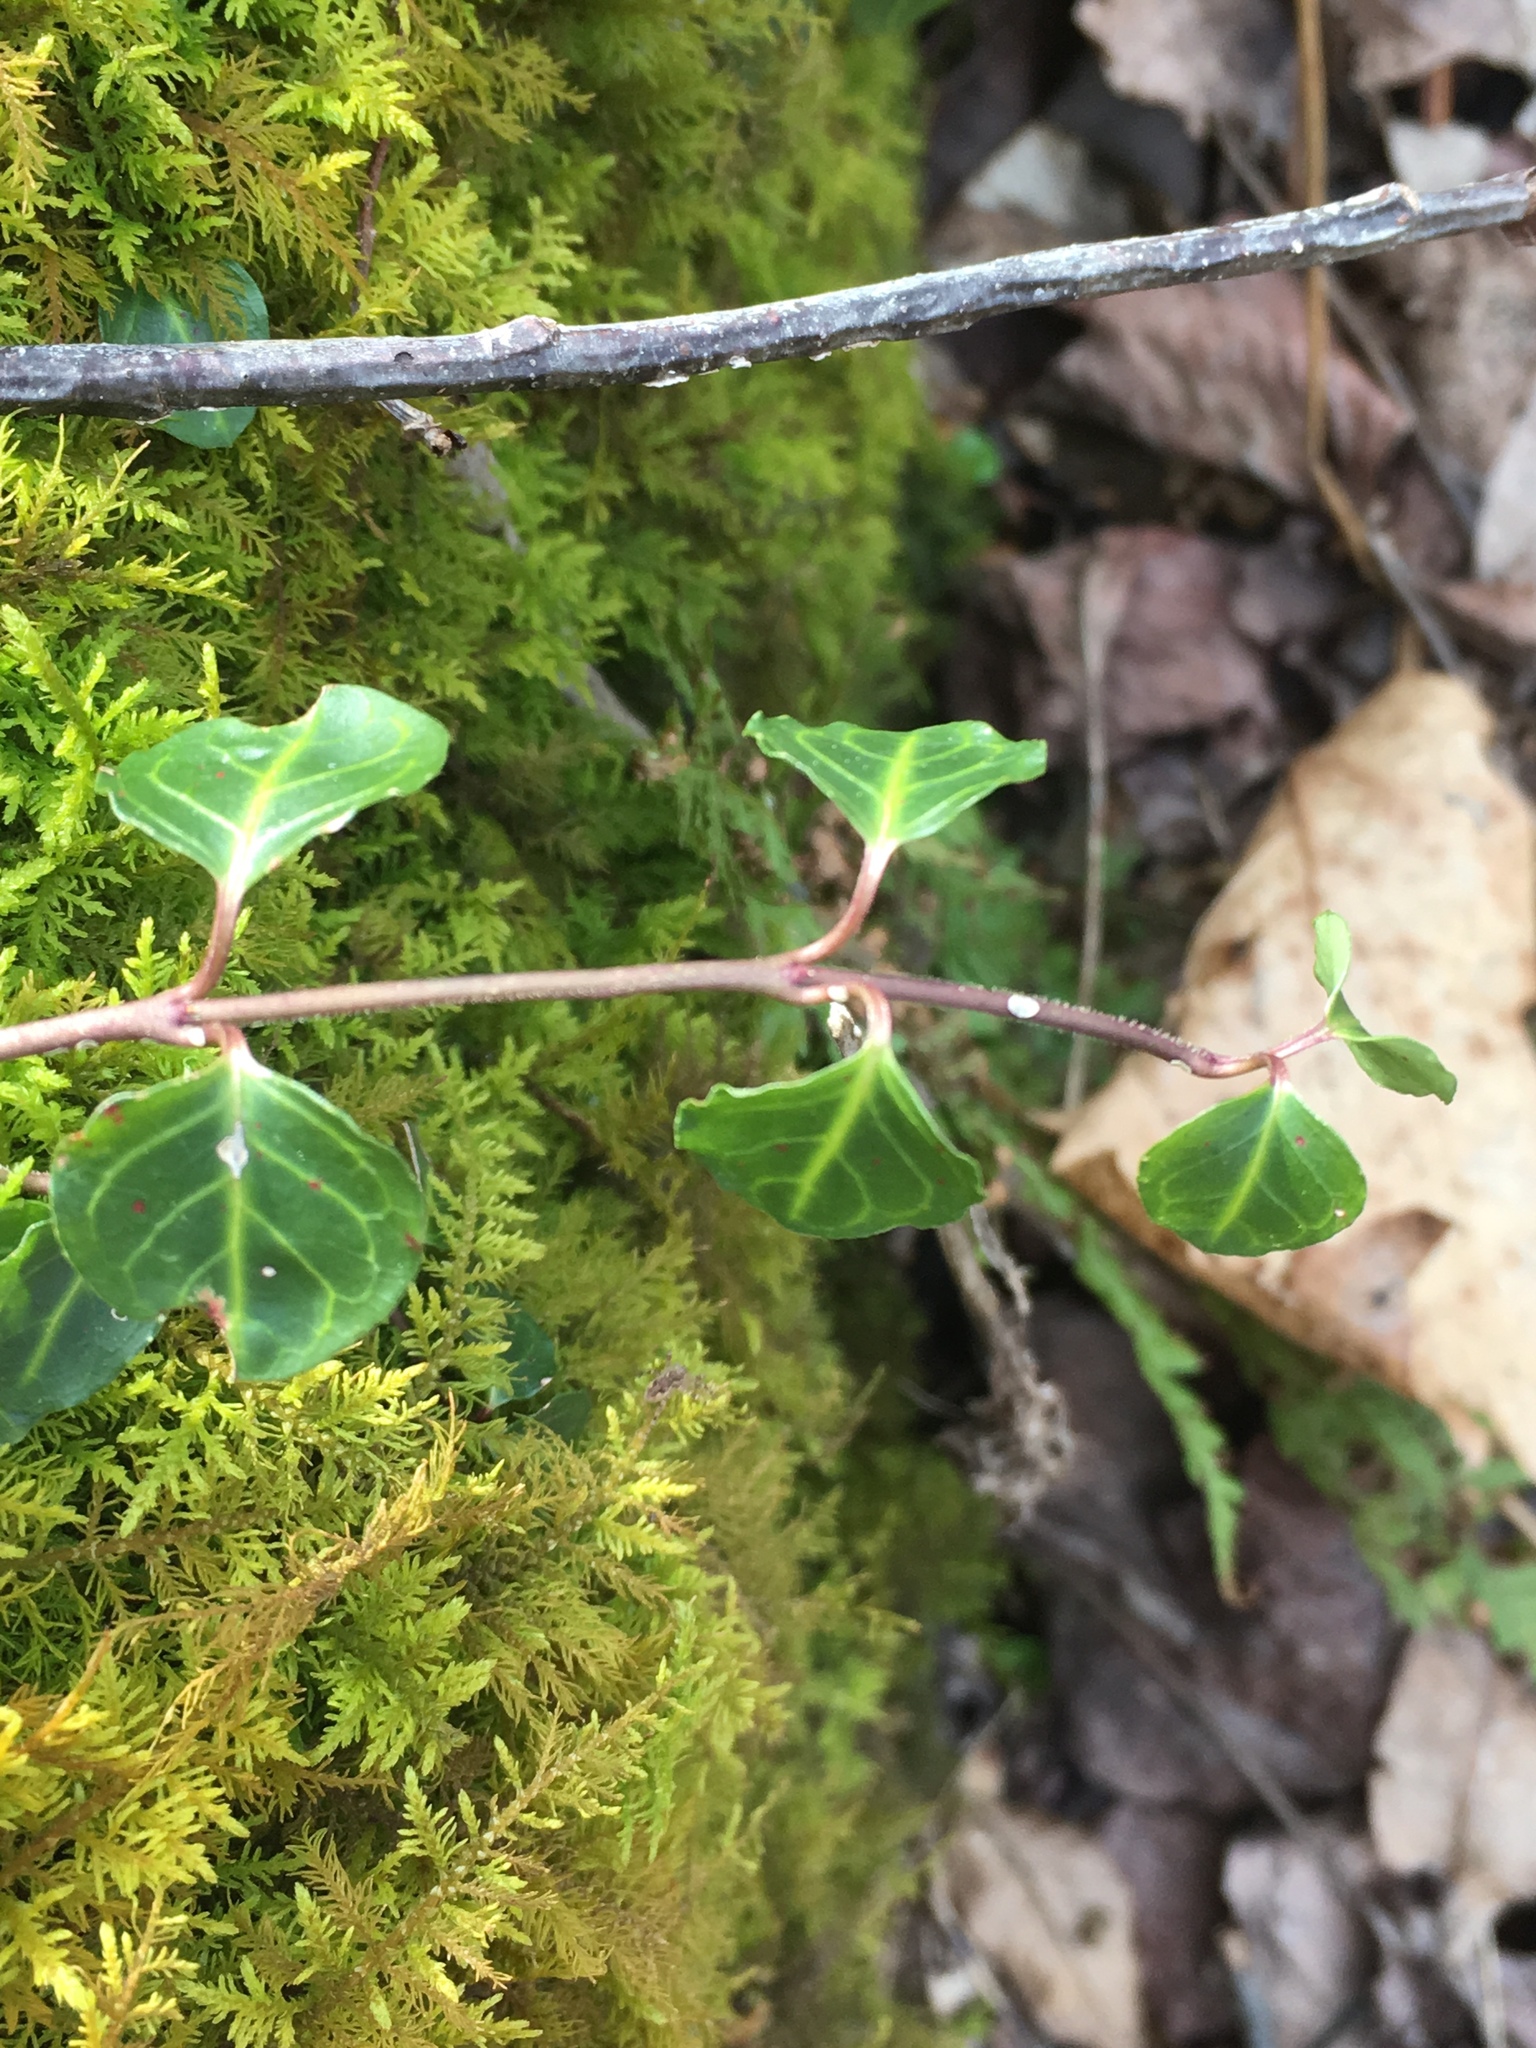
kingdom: Plantae
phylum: Tracheophyta
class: Magnoliopsida
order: Gentianales
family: Rubiaceae
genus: Mitchella
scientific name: Mitchella repens
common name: Partridge-berry
